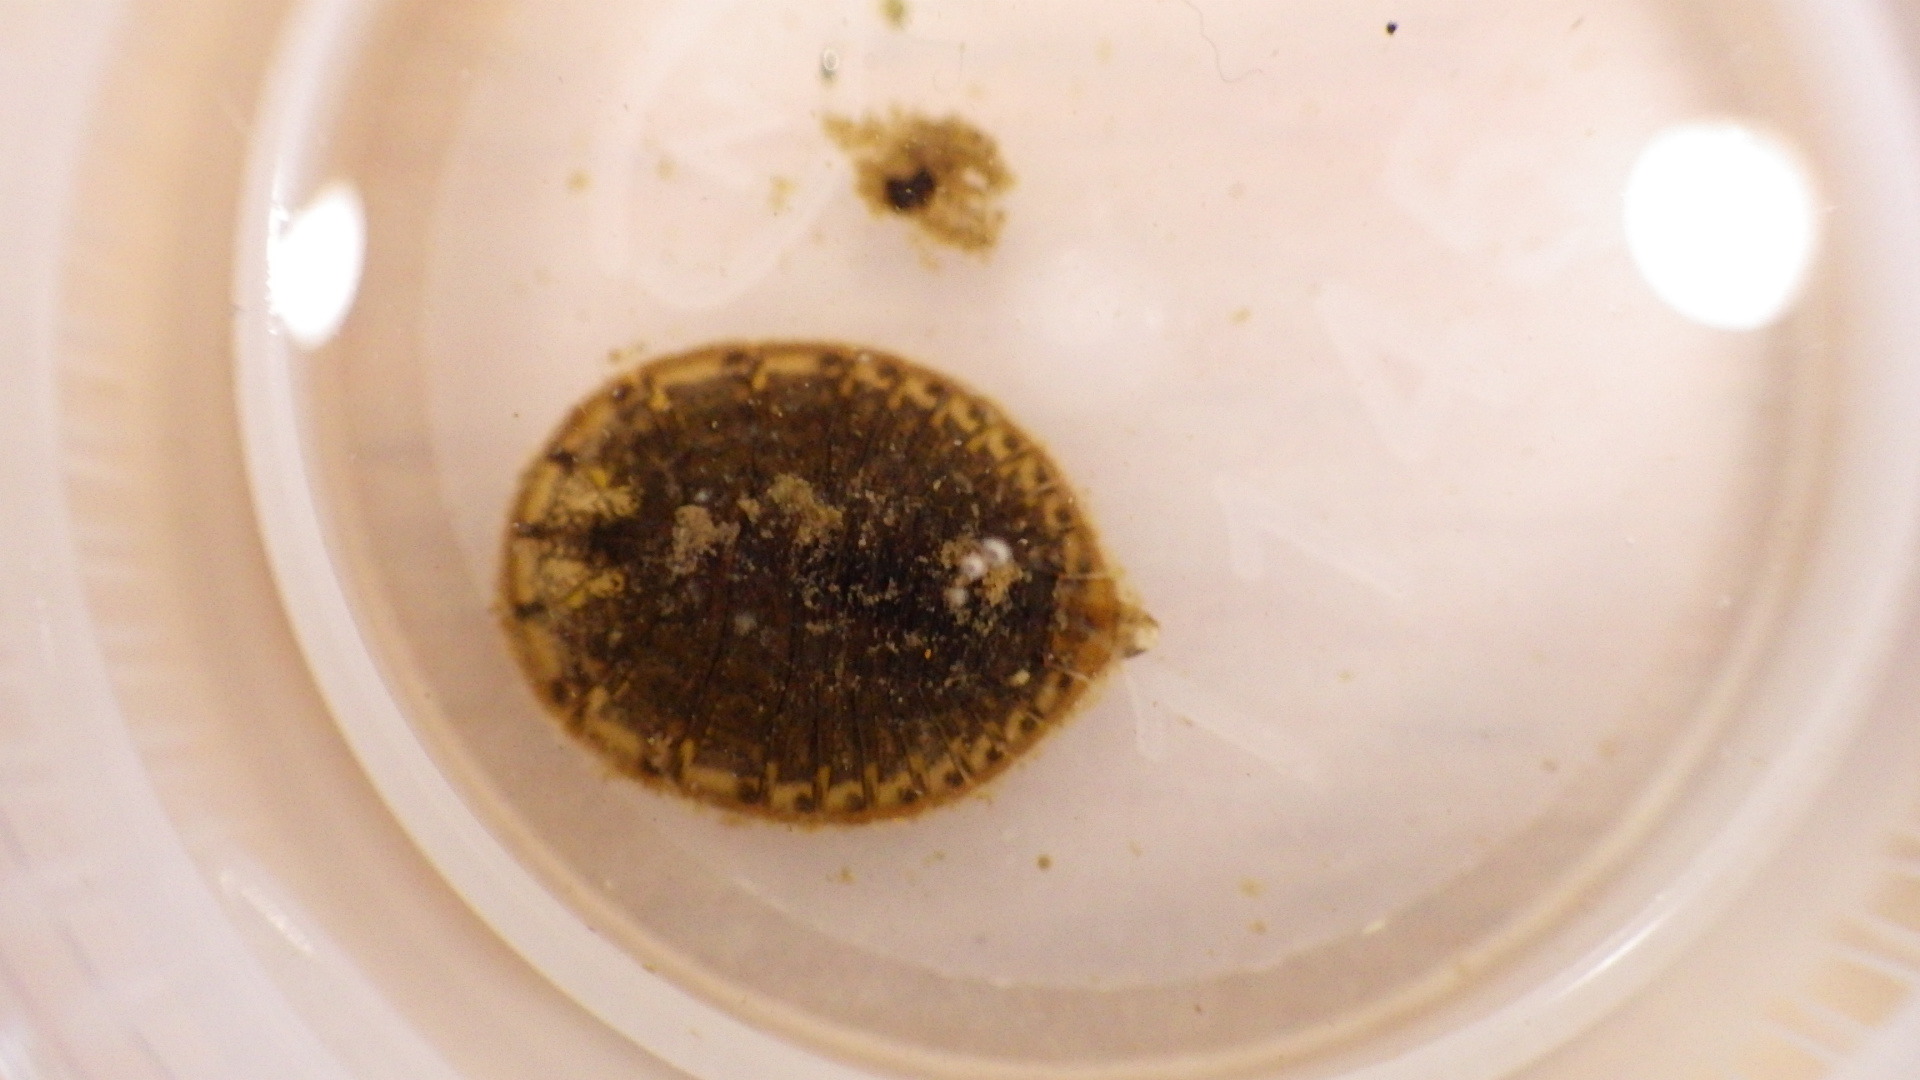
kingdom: Animalia
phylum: Arthropoda
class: Insecta
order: Coleoptera
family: Psephenidae
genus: Psephenus
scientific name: Psephenus herricki
